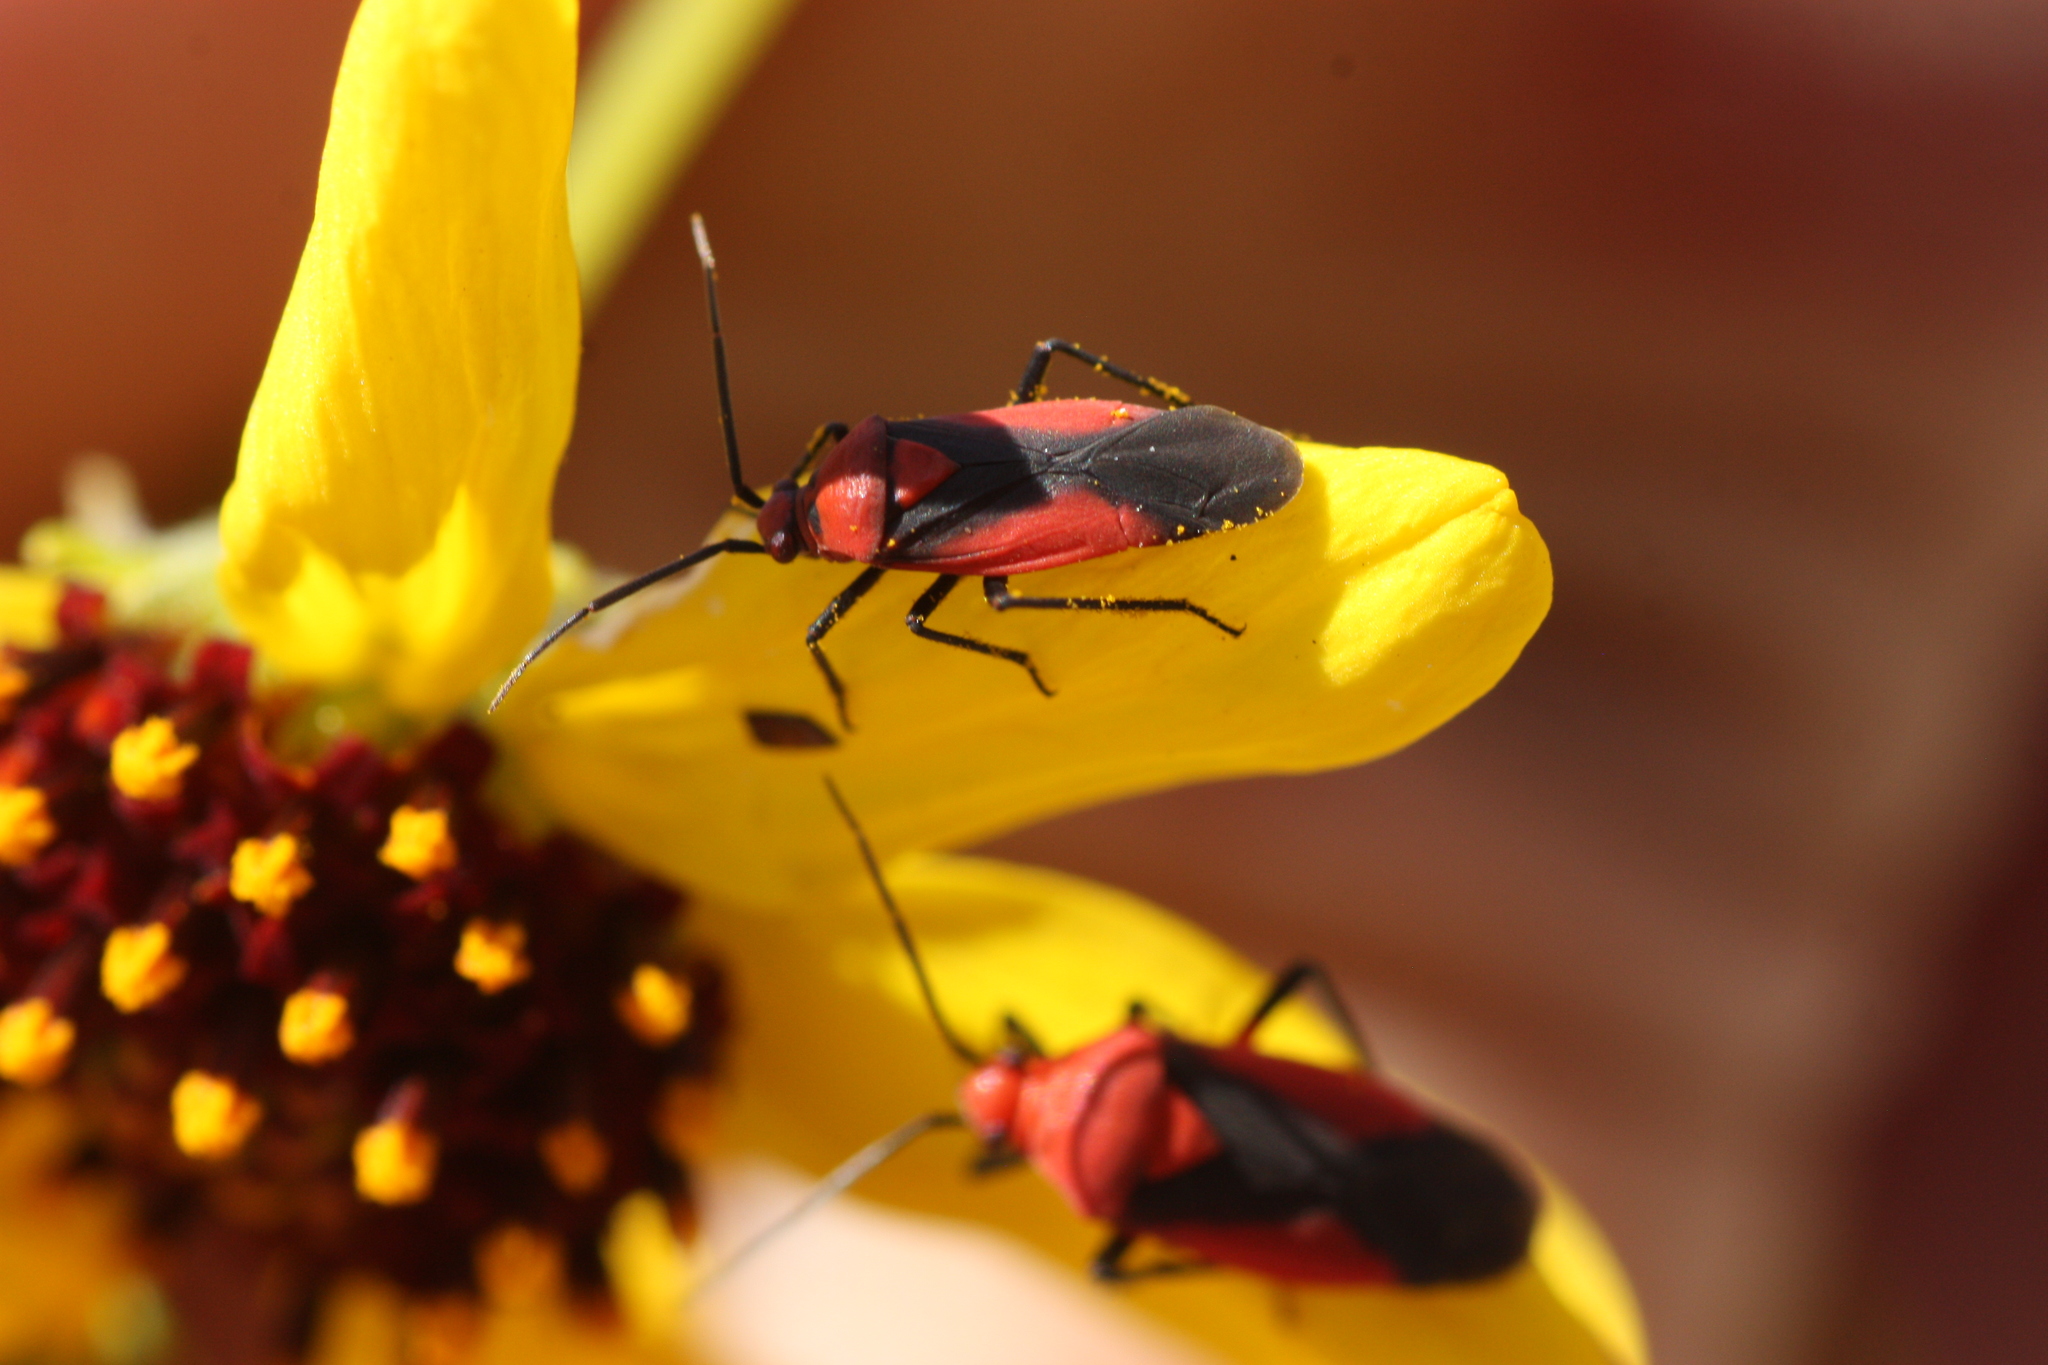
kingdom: Animalia
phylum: Arthropoda
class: Insecta
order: Hemiptera
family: Miridae
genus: Oncerometopus
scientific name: Oncerometopus nigriclavus
